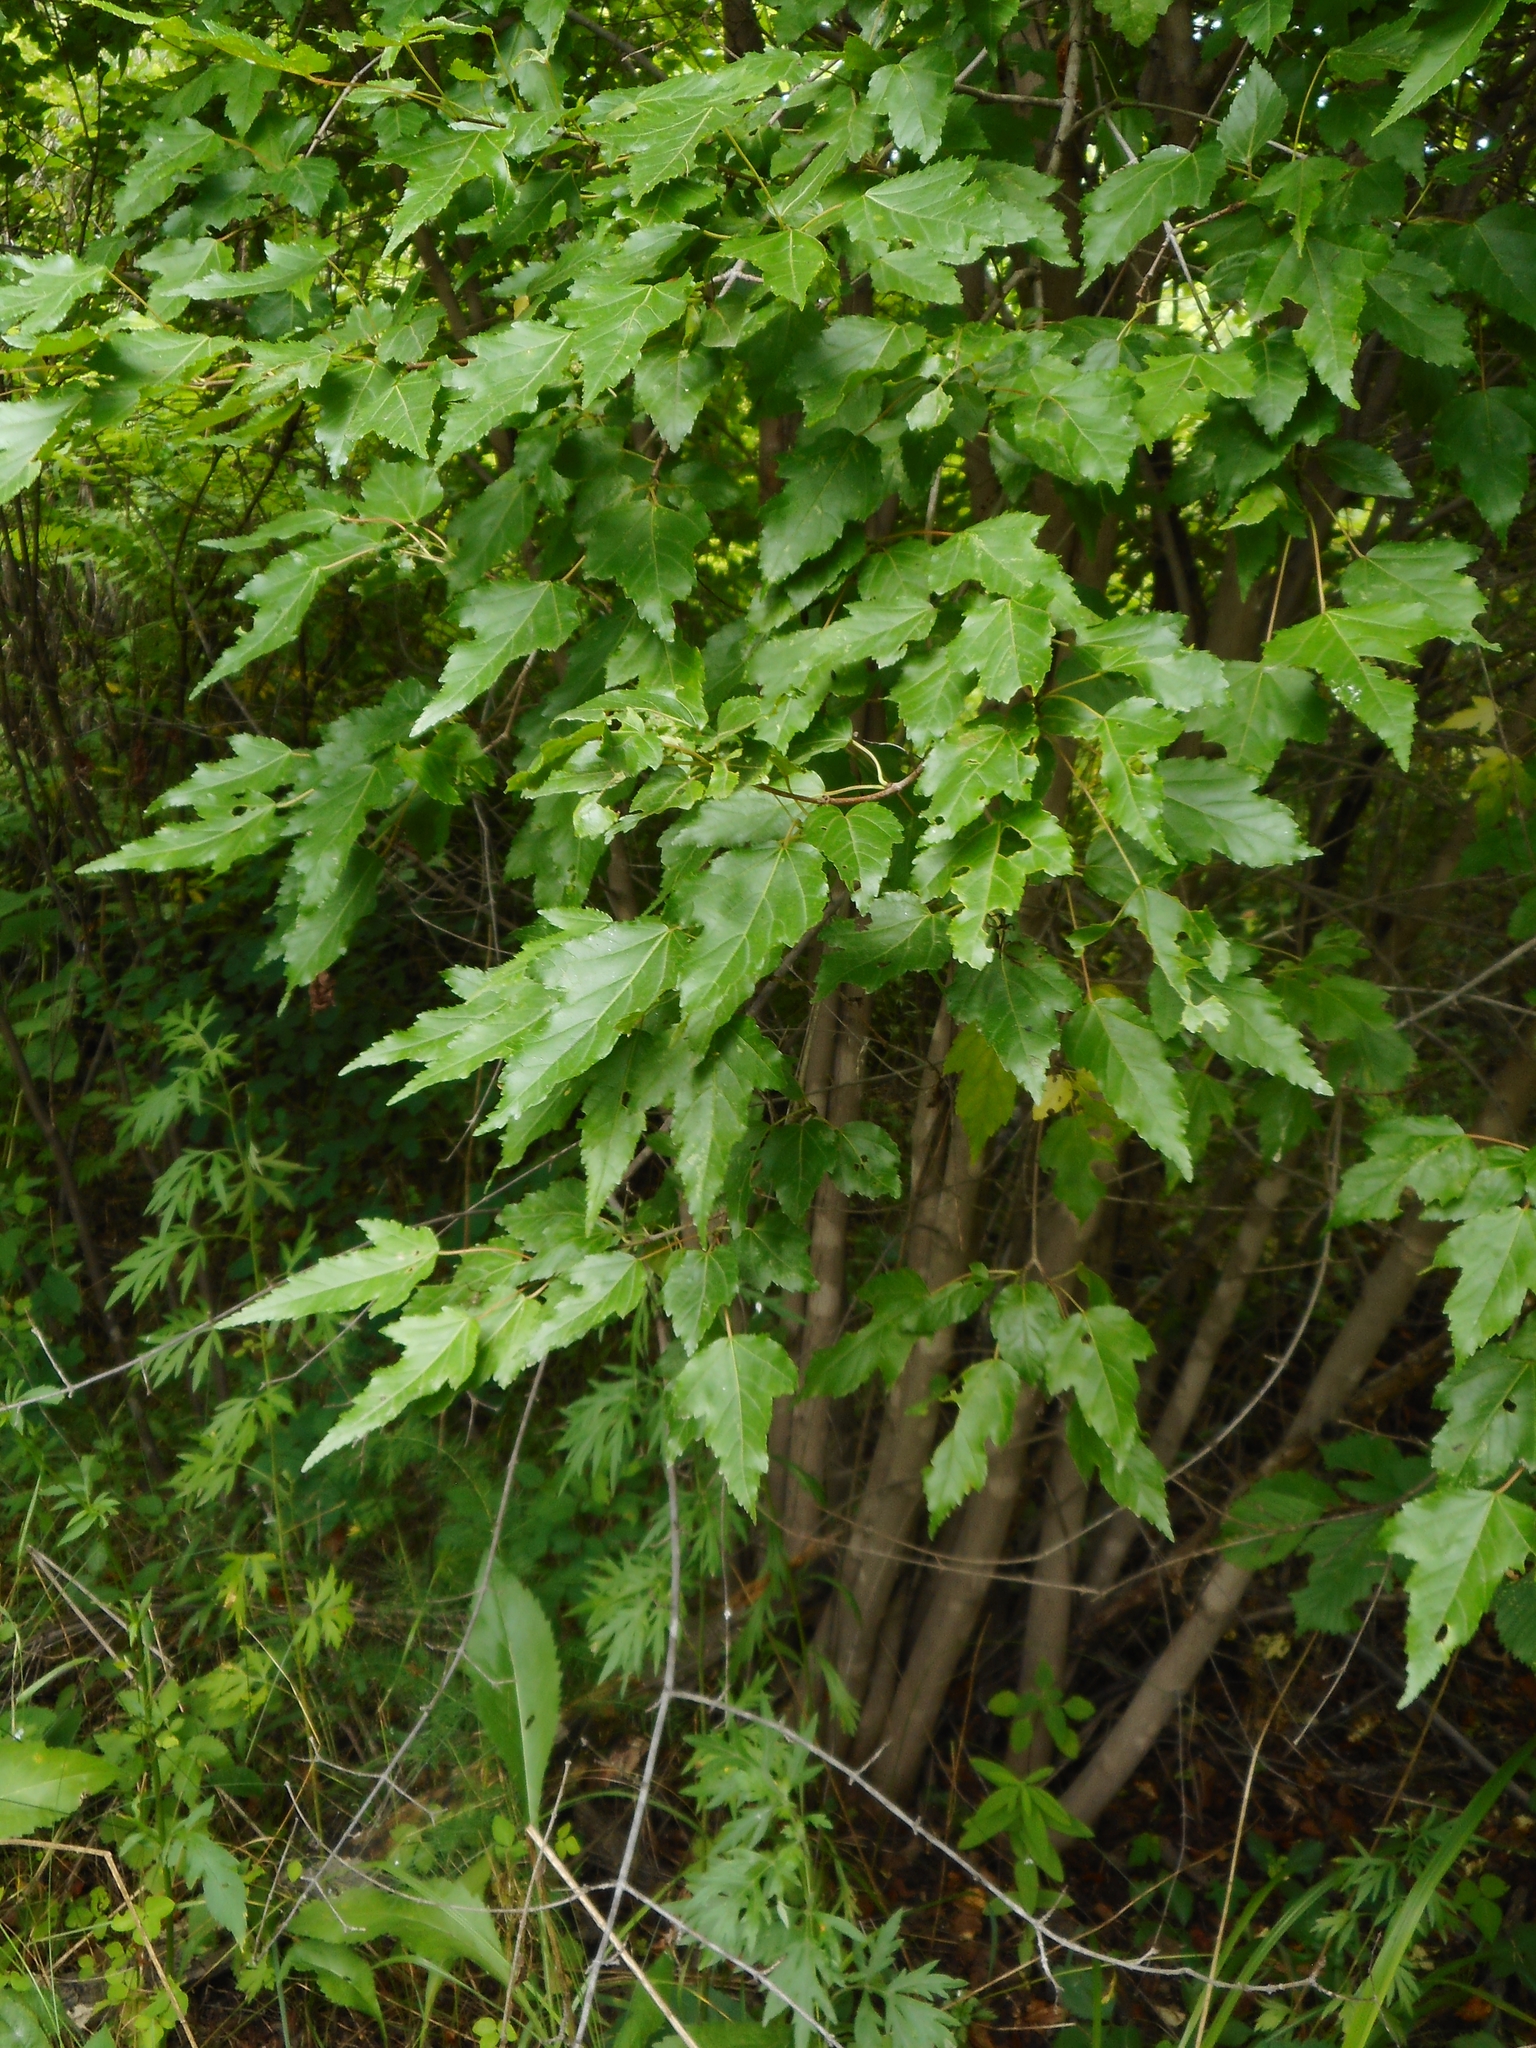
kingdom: Plantae
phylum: Tracheophyta
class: Magnoliopsida
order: Sapindales
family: Sapindaceae
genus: Acer
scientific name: Acer tataricum
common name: Tartar maple
